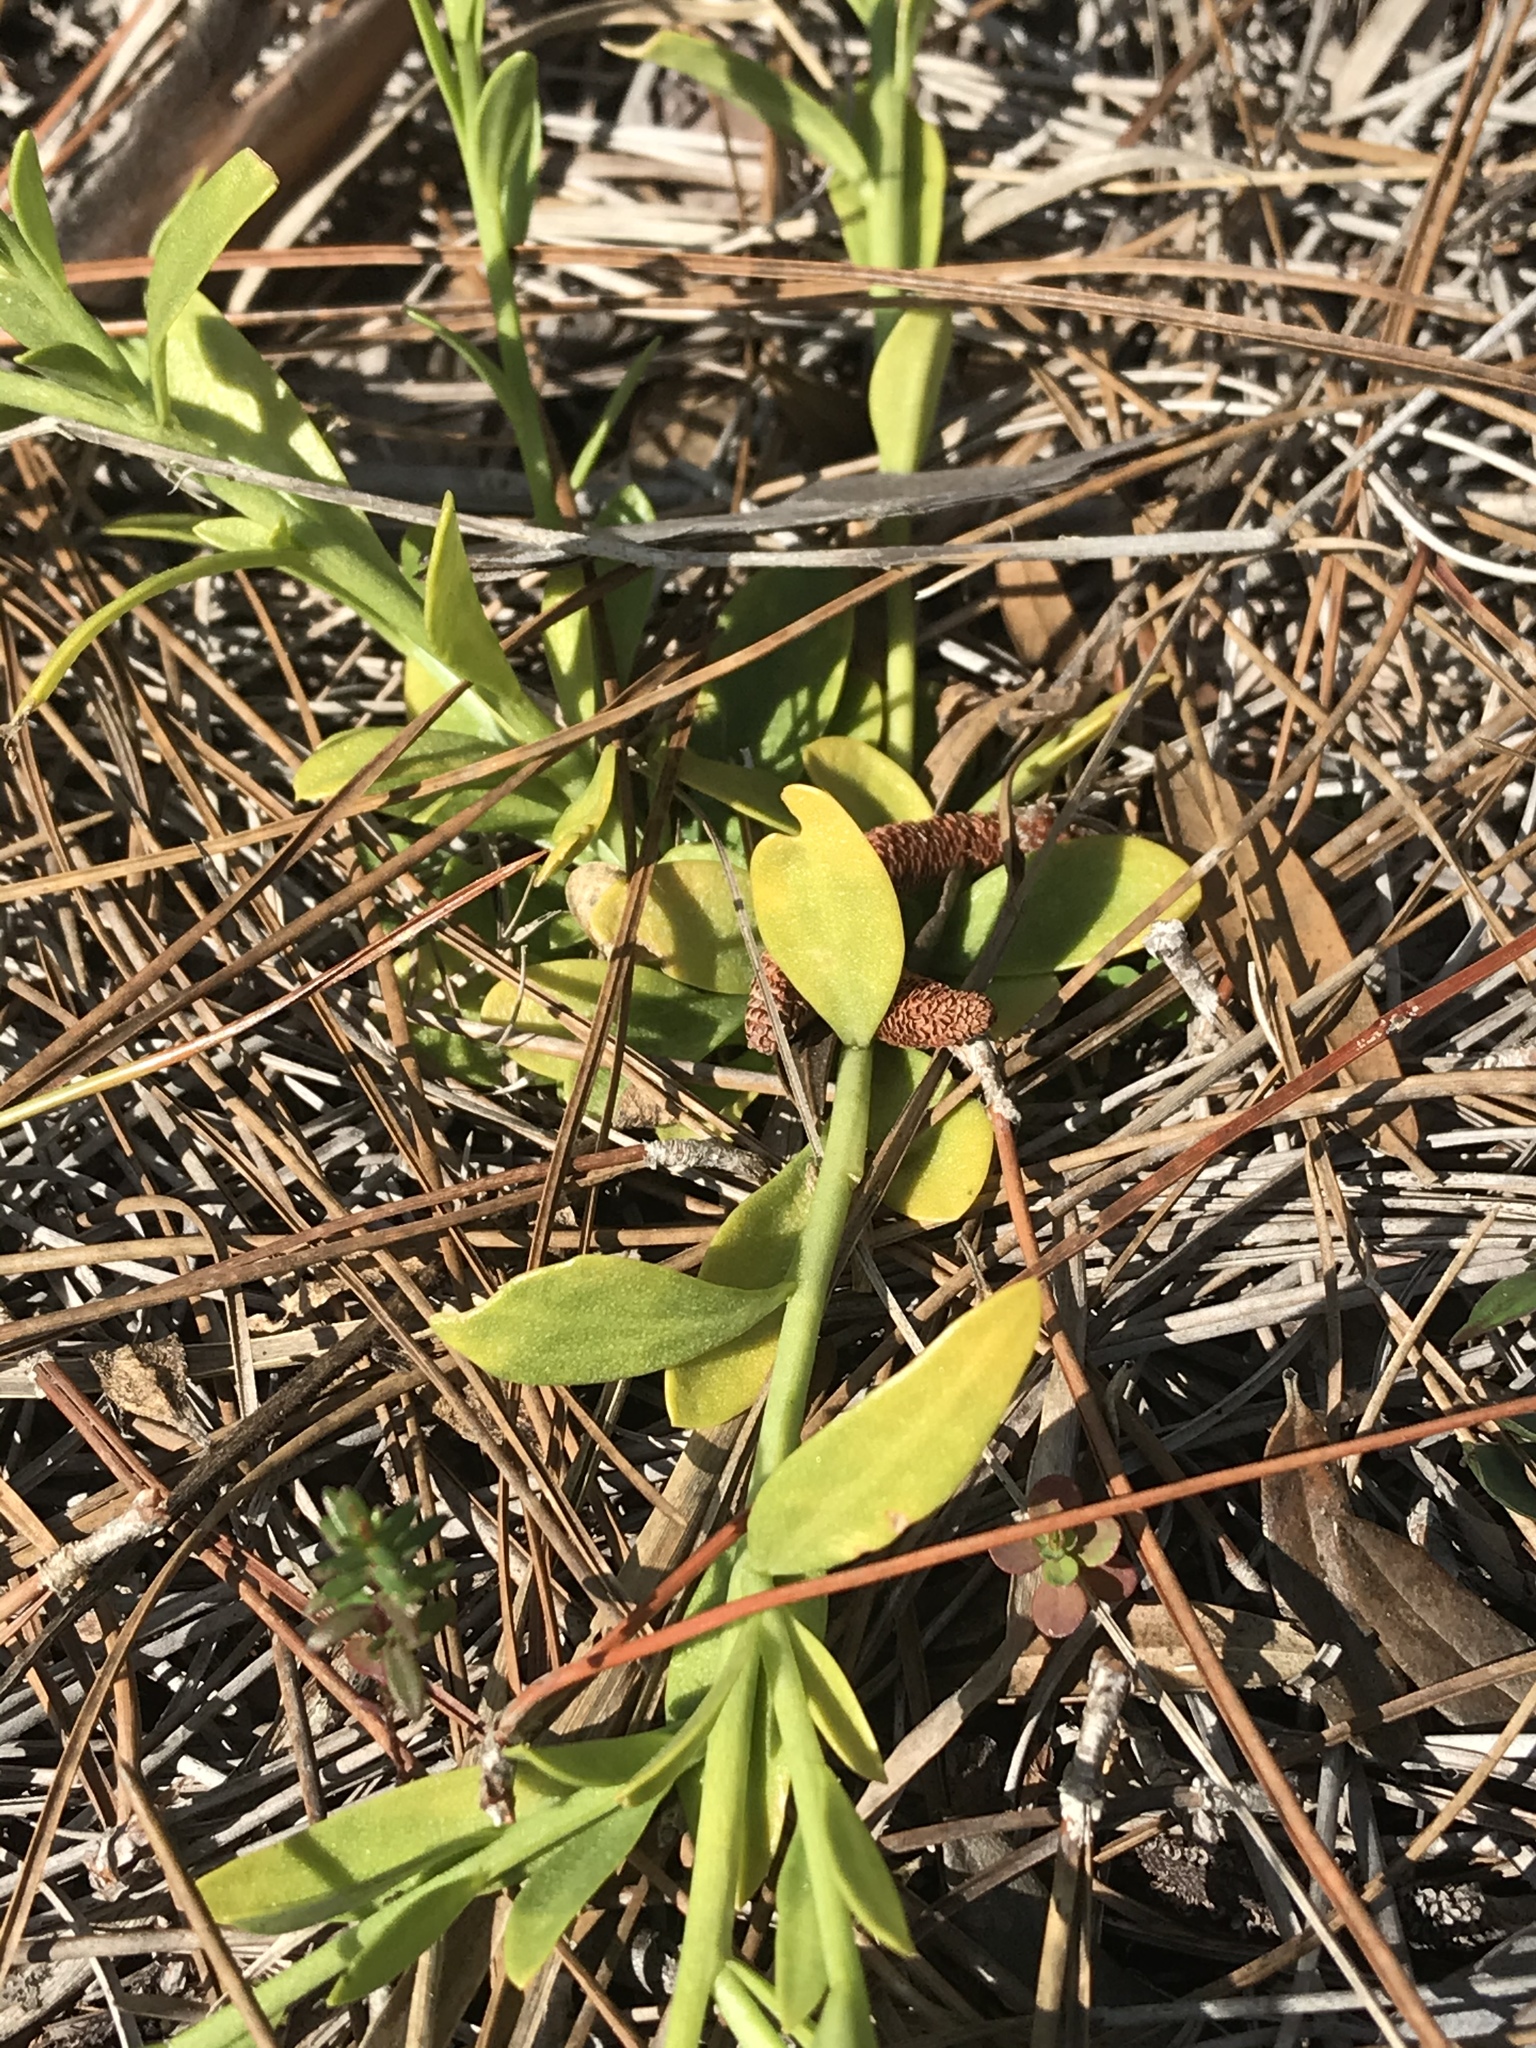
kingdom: Plantae
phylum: Tracheophyta
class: Magnoliopsida
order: Fabales
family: Polygalaceae
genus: Polygala
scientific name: Polygala lutea
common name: Orange milkwort
